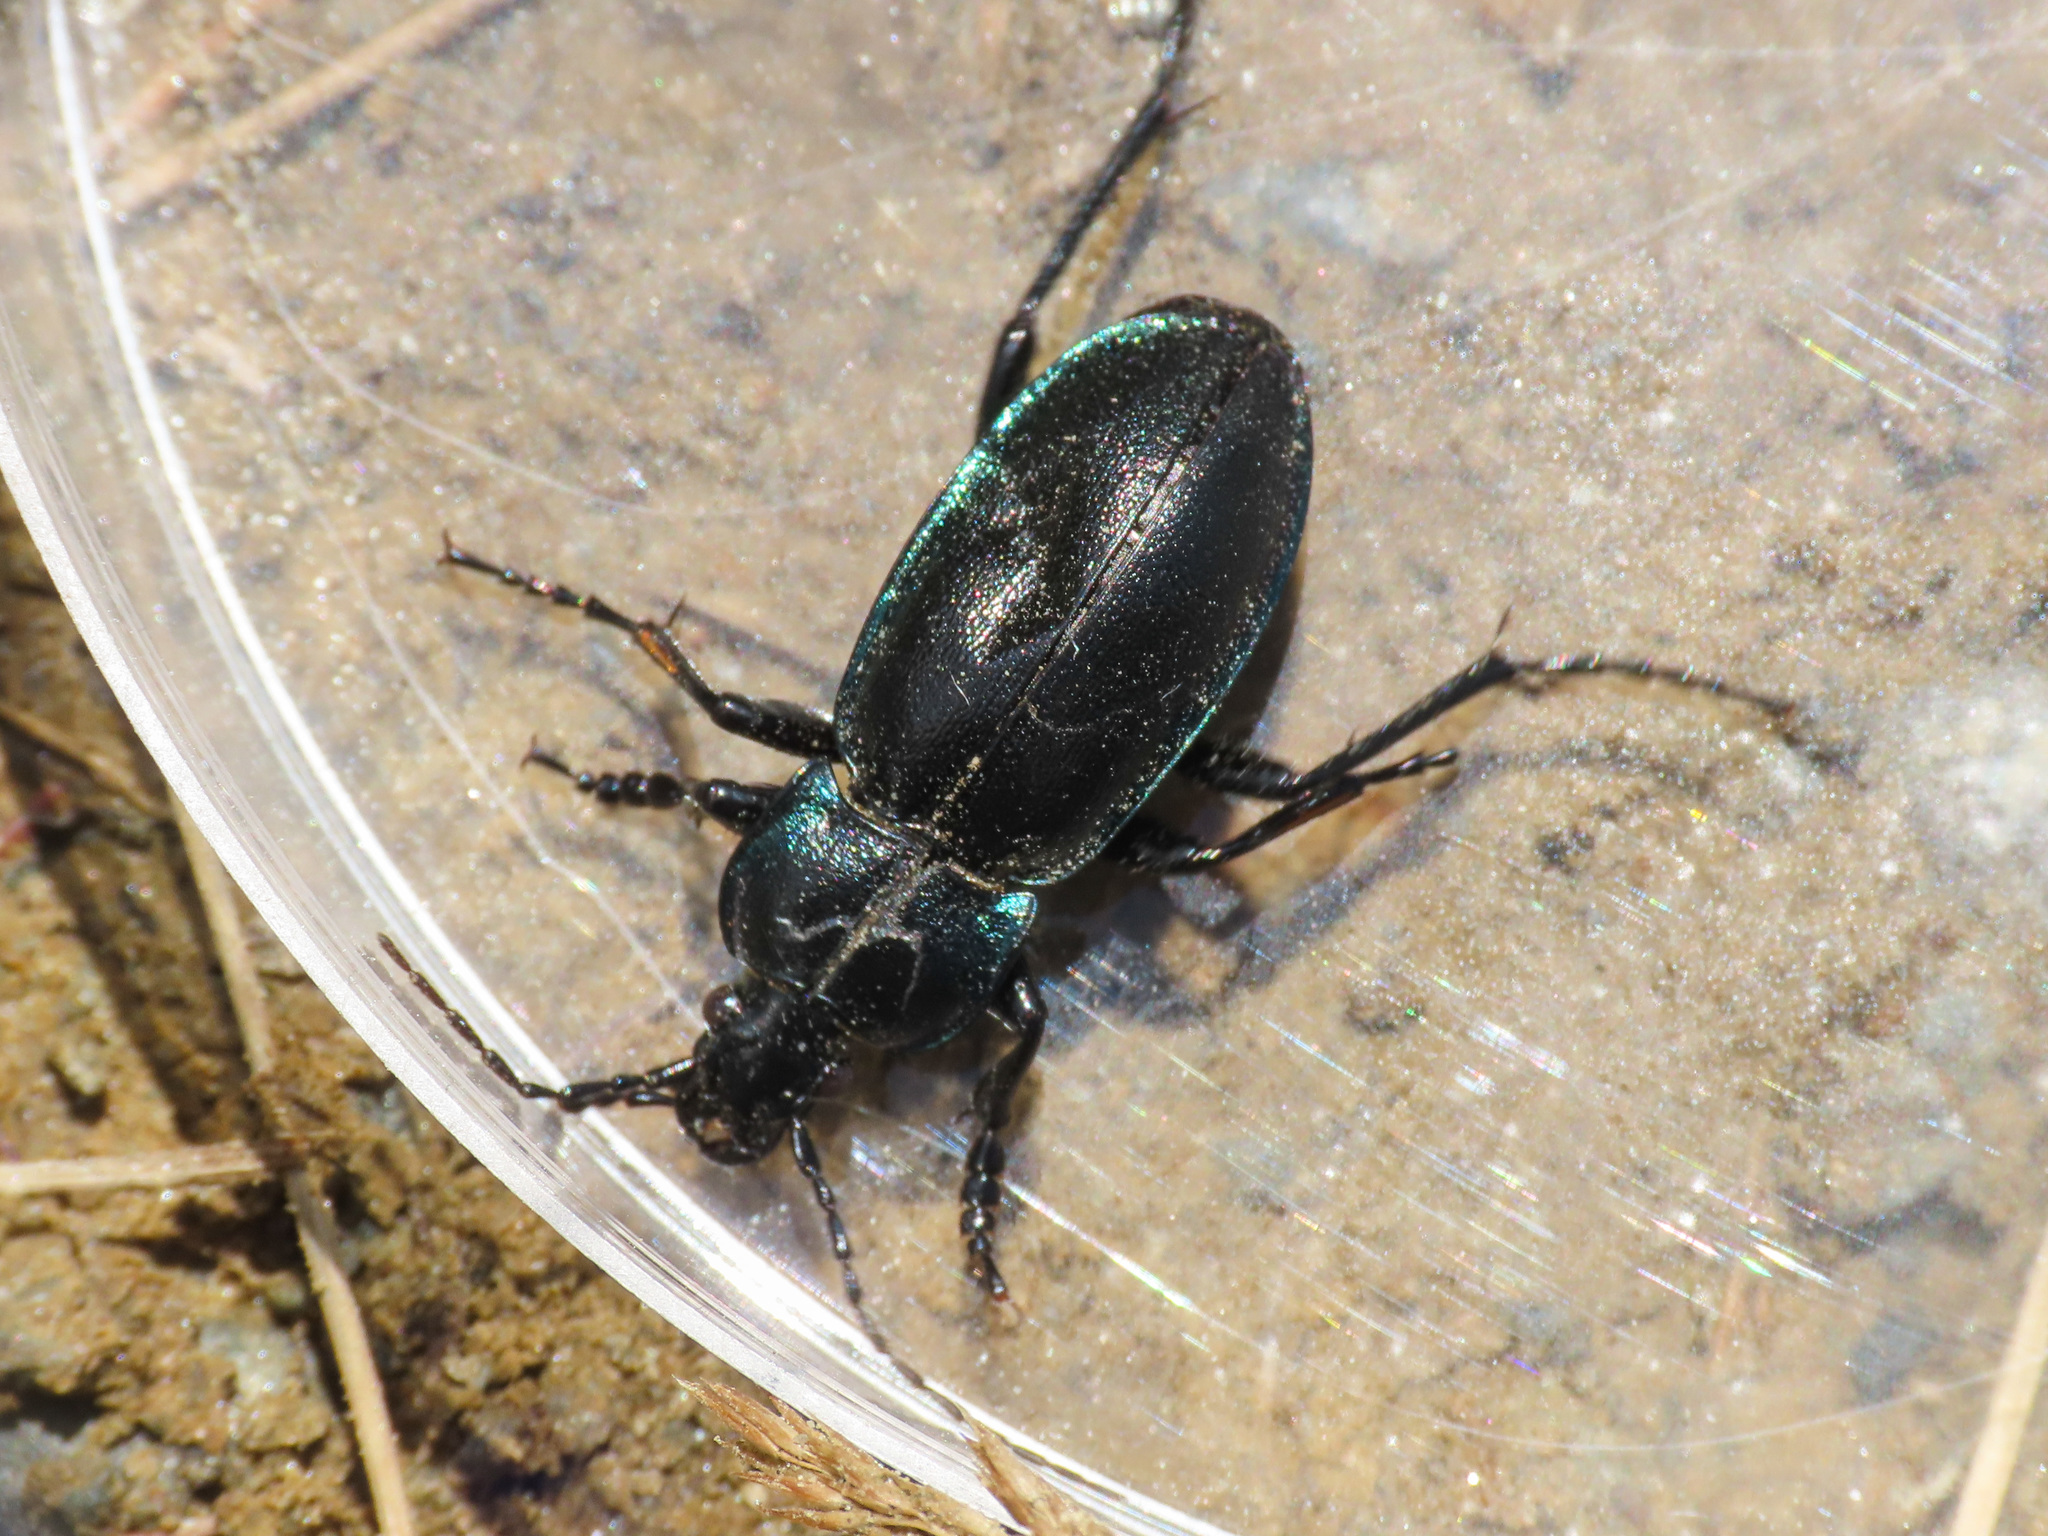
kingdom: Animalia
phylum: Arthropoda
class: Insecta
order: Coleoptera
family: Carabidae
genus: Carabus
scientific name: Carabus germarii
